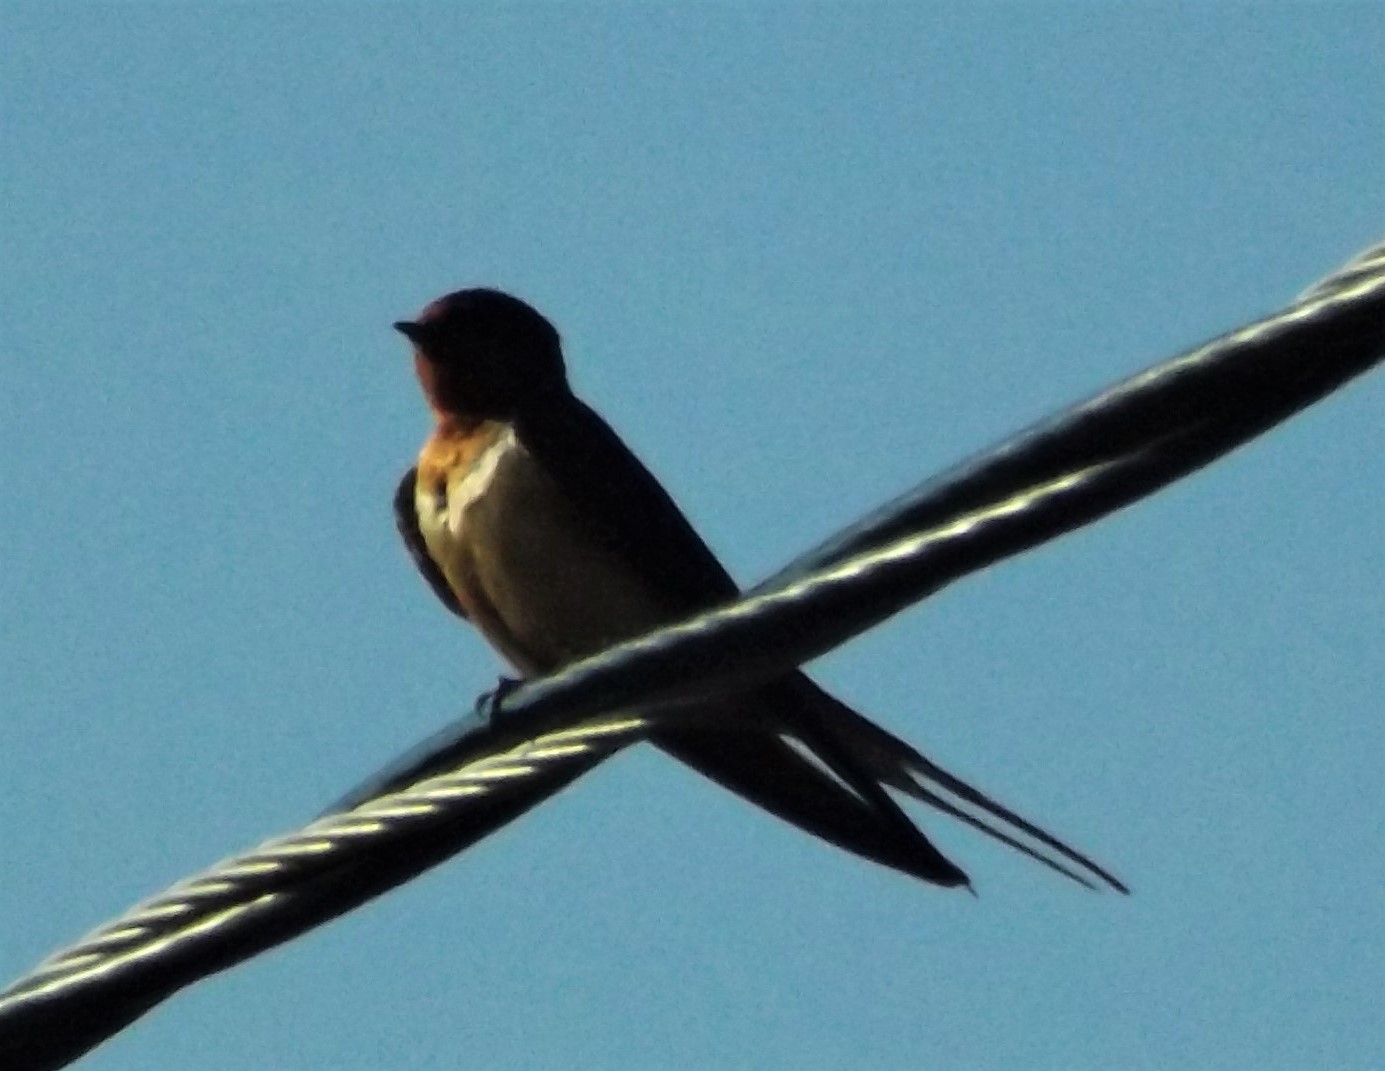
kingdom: Animalia
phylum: Chordata
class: Aves
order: Passeriformes
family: Hirundinidae
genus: Hirundo
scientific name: Hirundo rustica
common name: Barn swallow
